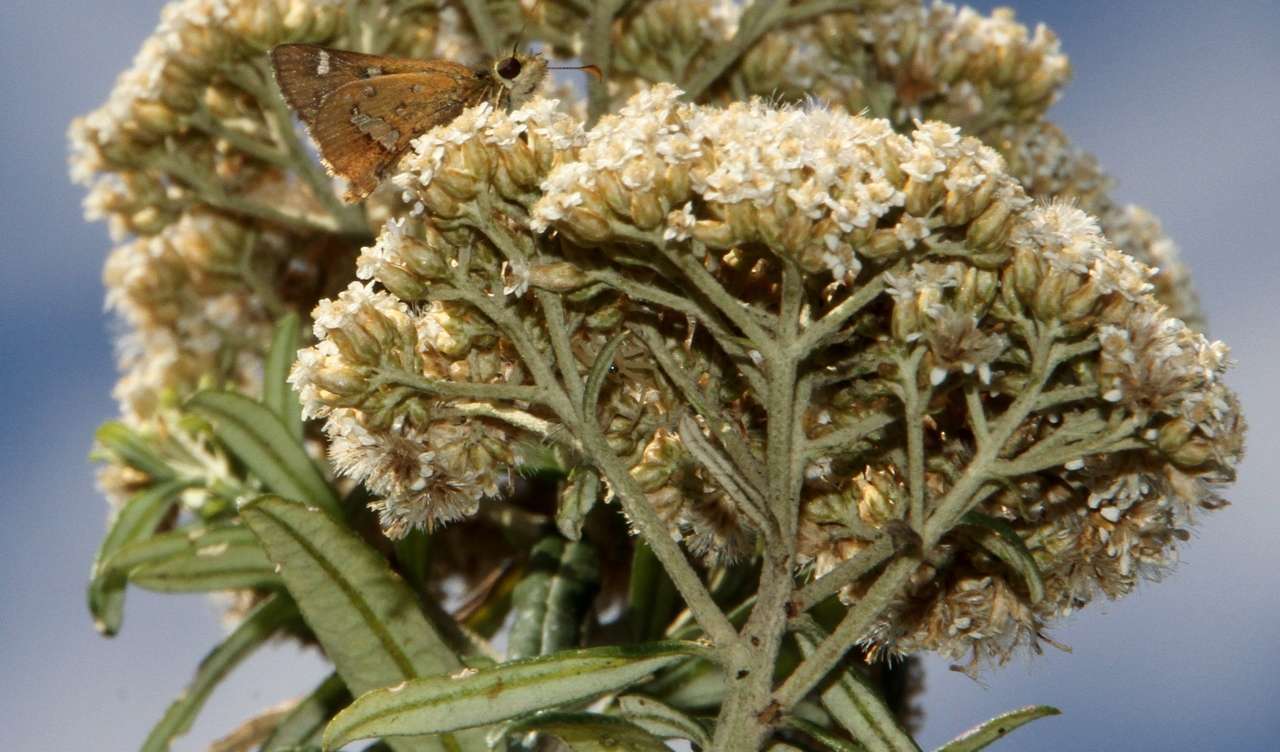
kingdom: Animalia
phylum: Arthropoda
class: Insecta
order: Lepidoptera
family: Hesperiidae
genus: Dispar
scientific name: Dispar compacta
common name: Barred skipper
